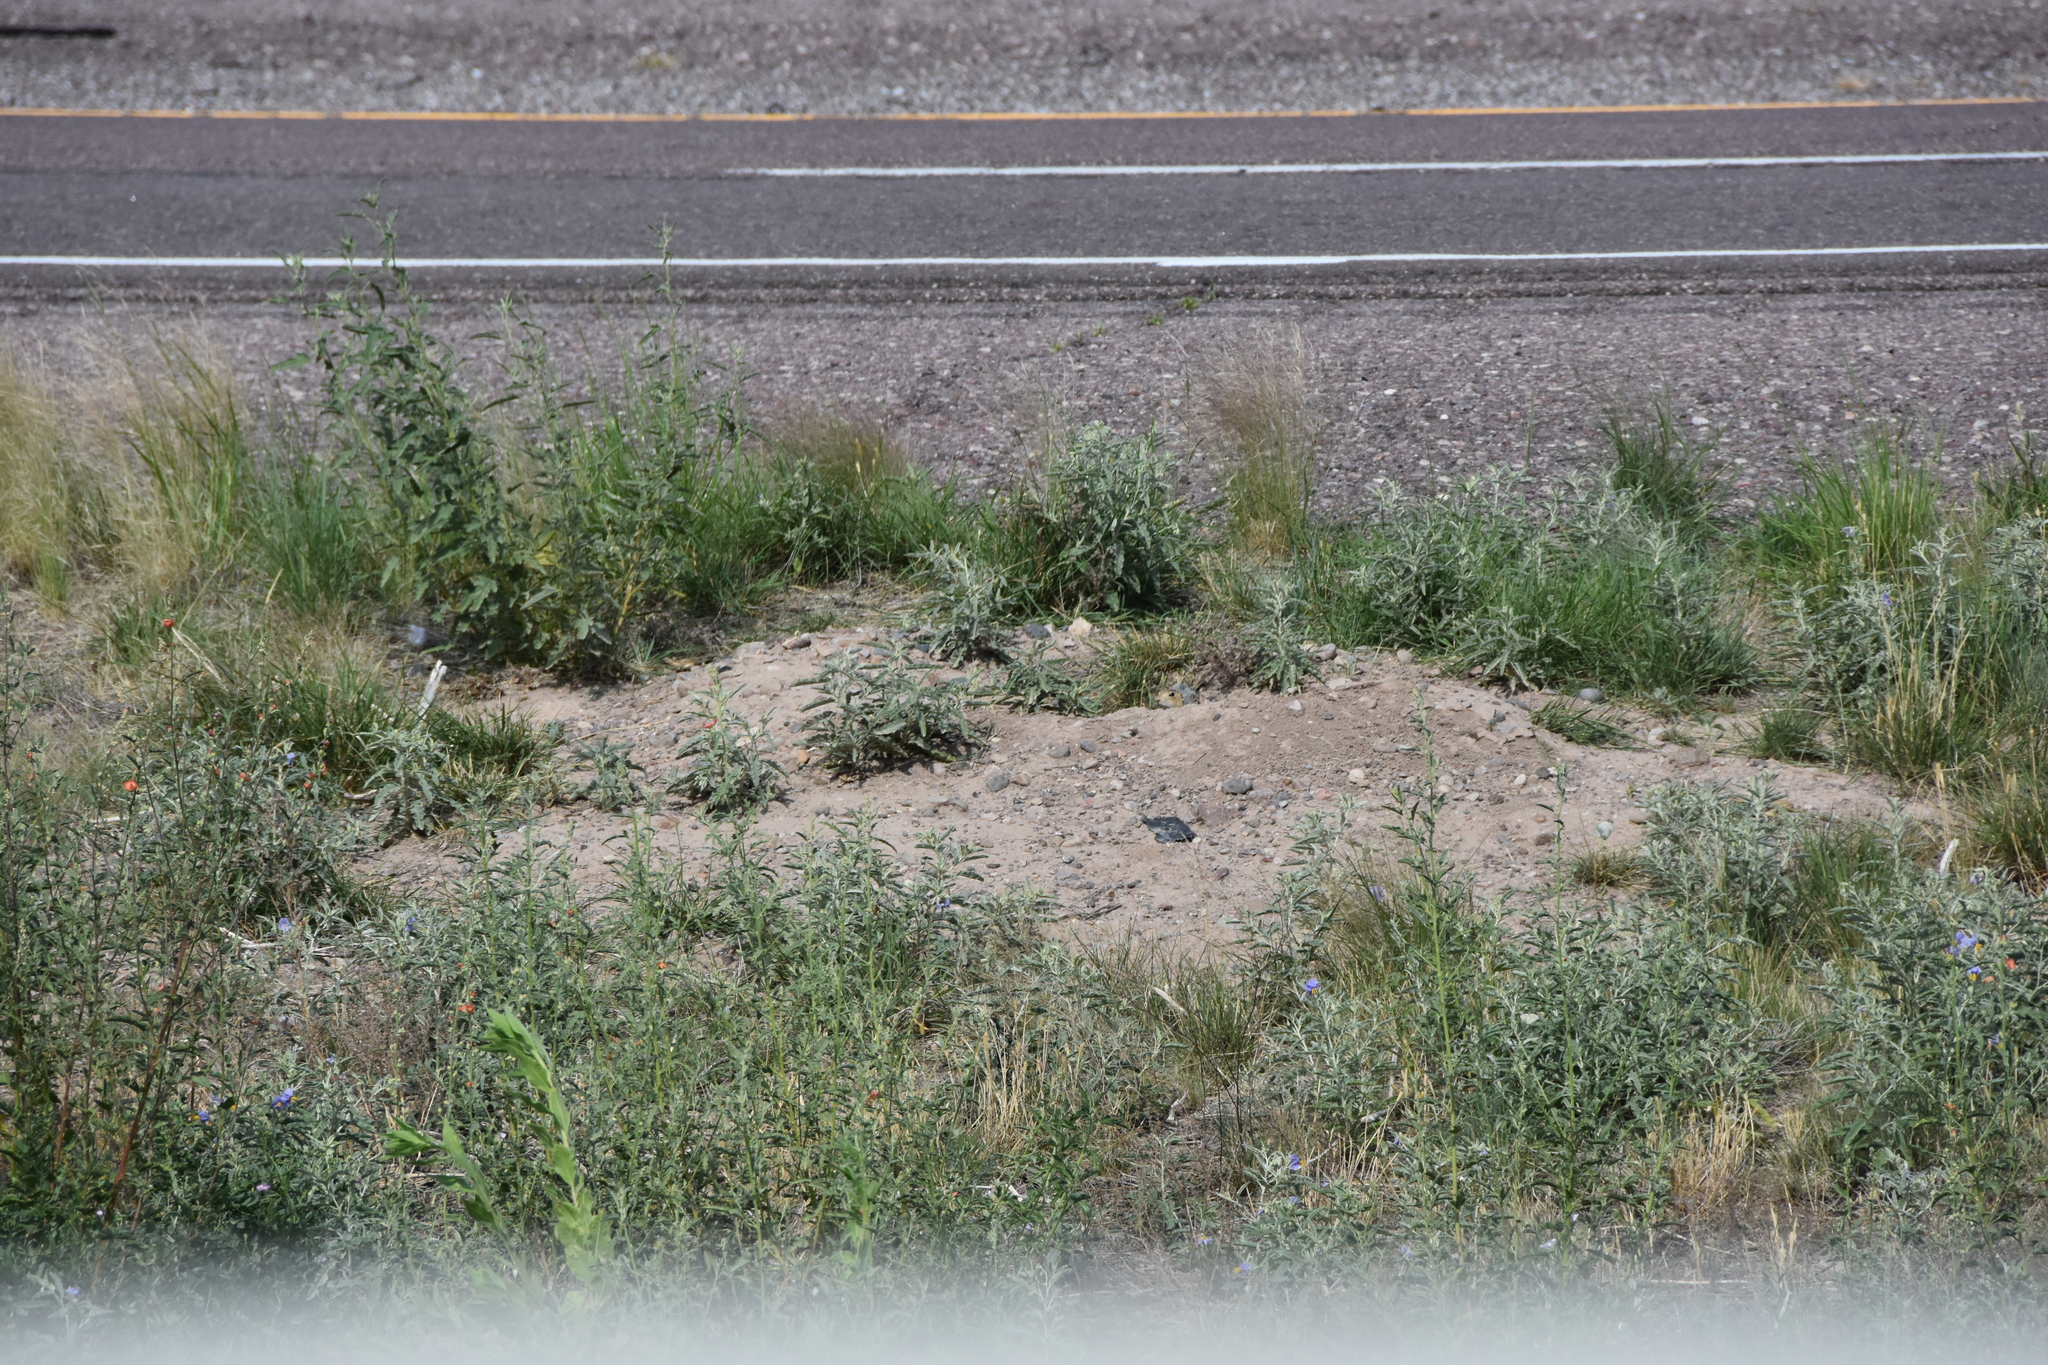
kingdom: Animalia
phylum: Chordata
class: Mammalia
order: Rodentia
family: Sciuridae
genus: Cynomys
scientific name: Cynomys gunnisoni
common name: Gunnison's prairie dog
